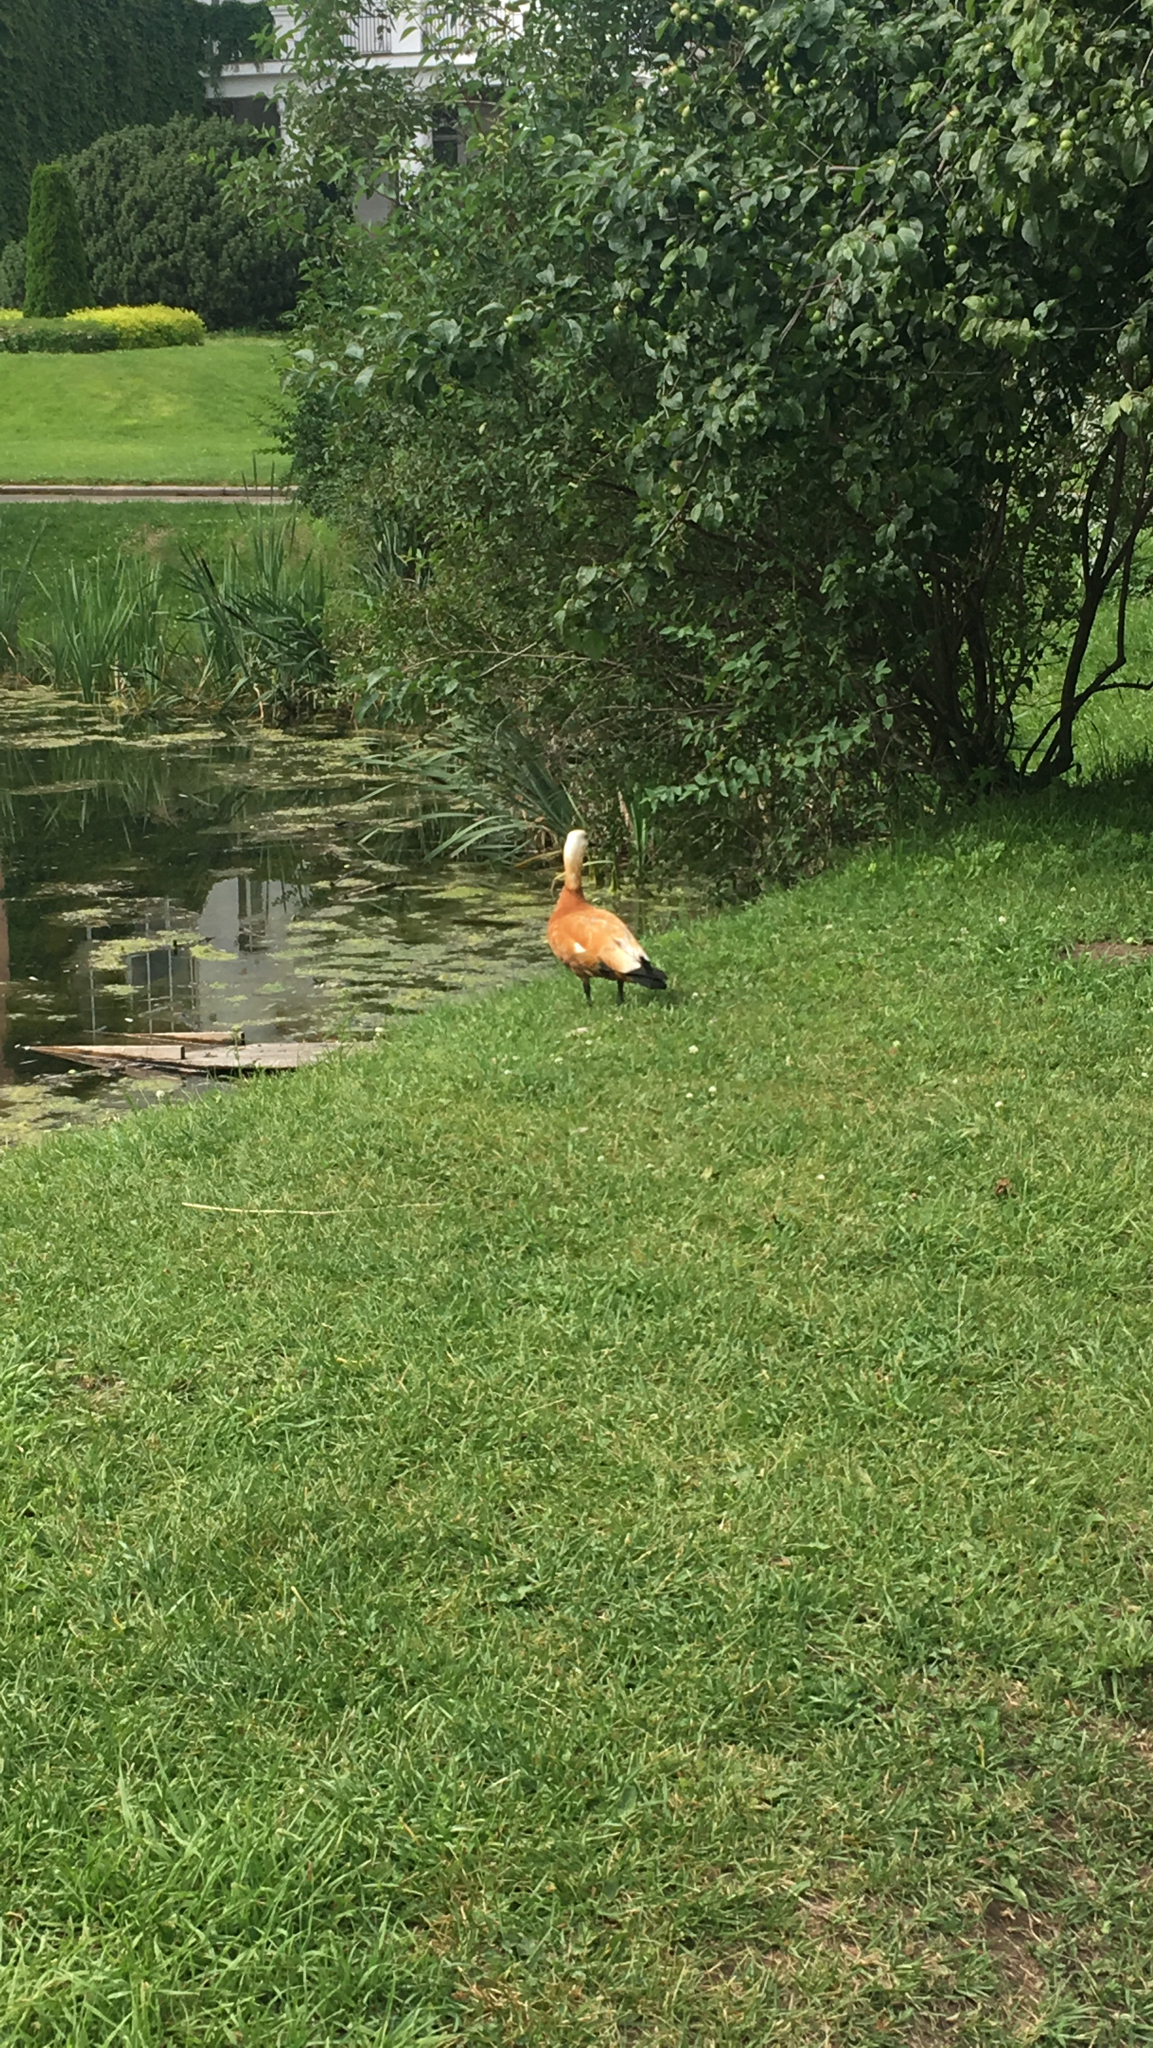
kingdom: Animalia
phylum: Chordata
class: Aves
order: Anseriformes
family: Anatidae
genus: Tadorna
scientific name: Tadorna ferruginea
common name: Ruddy shelduck
